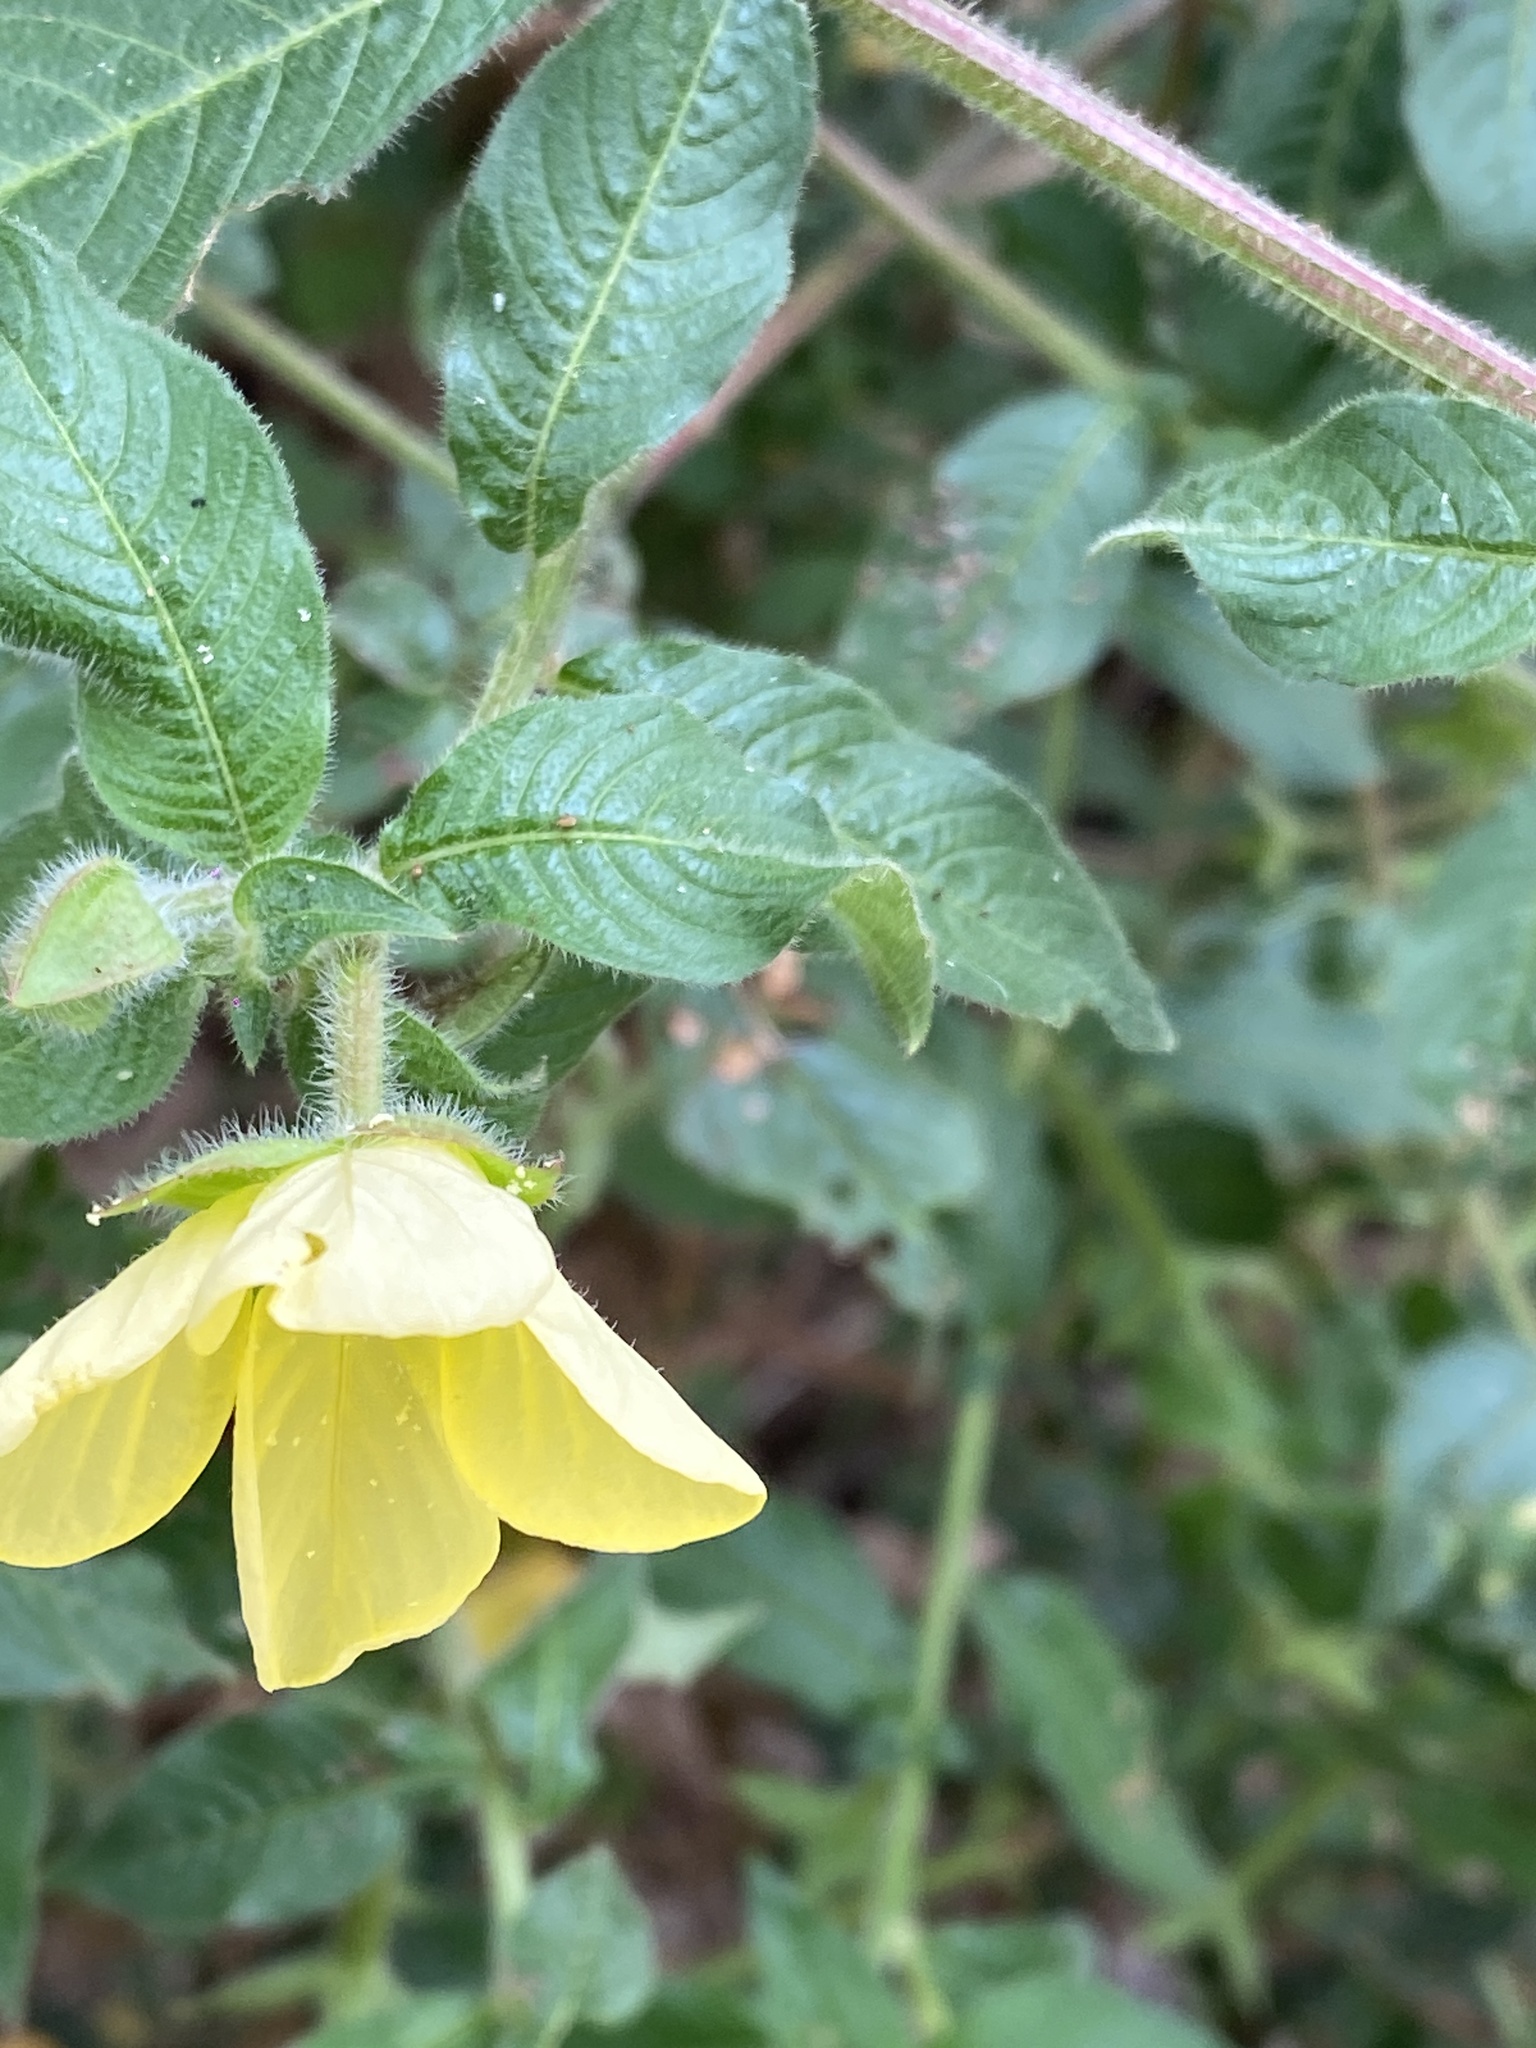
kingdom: Plantae
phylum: Tracheophyta
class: Magnoliopsida
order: Myrtales
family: Onagraceae
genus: Ludwigia
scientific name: Ludwigia octovalvis
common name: Water-primrose
